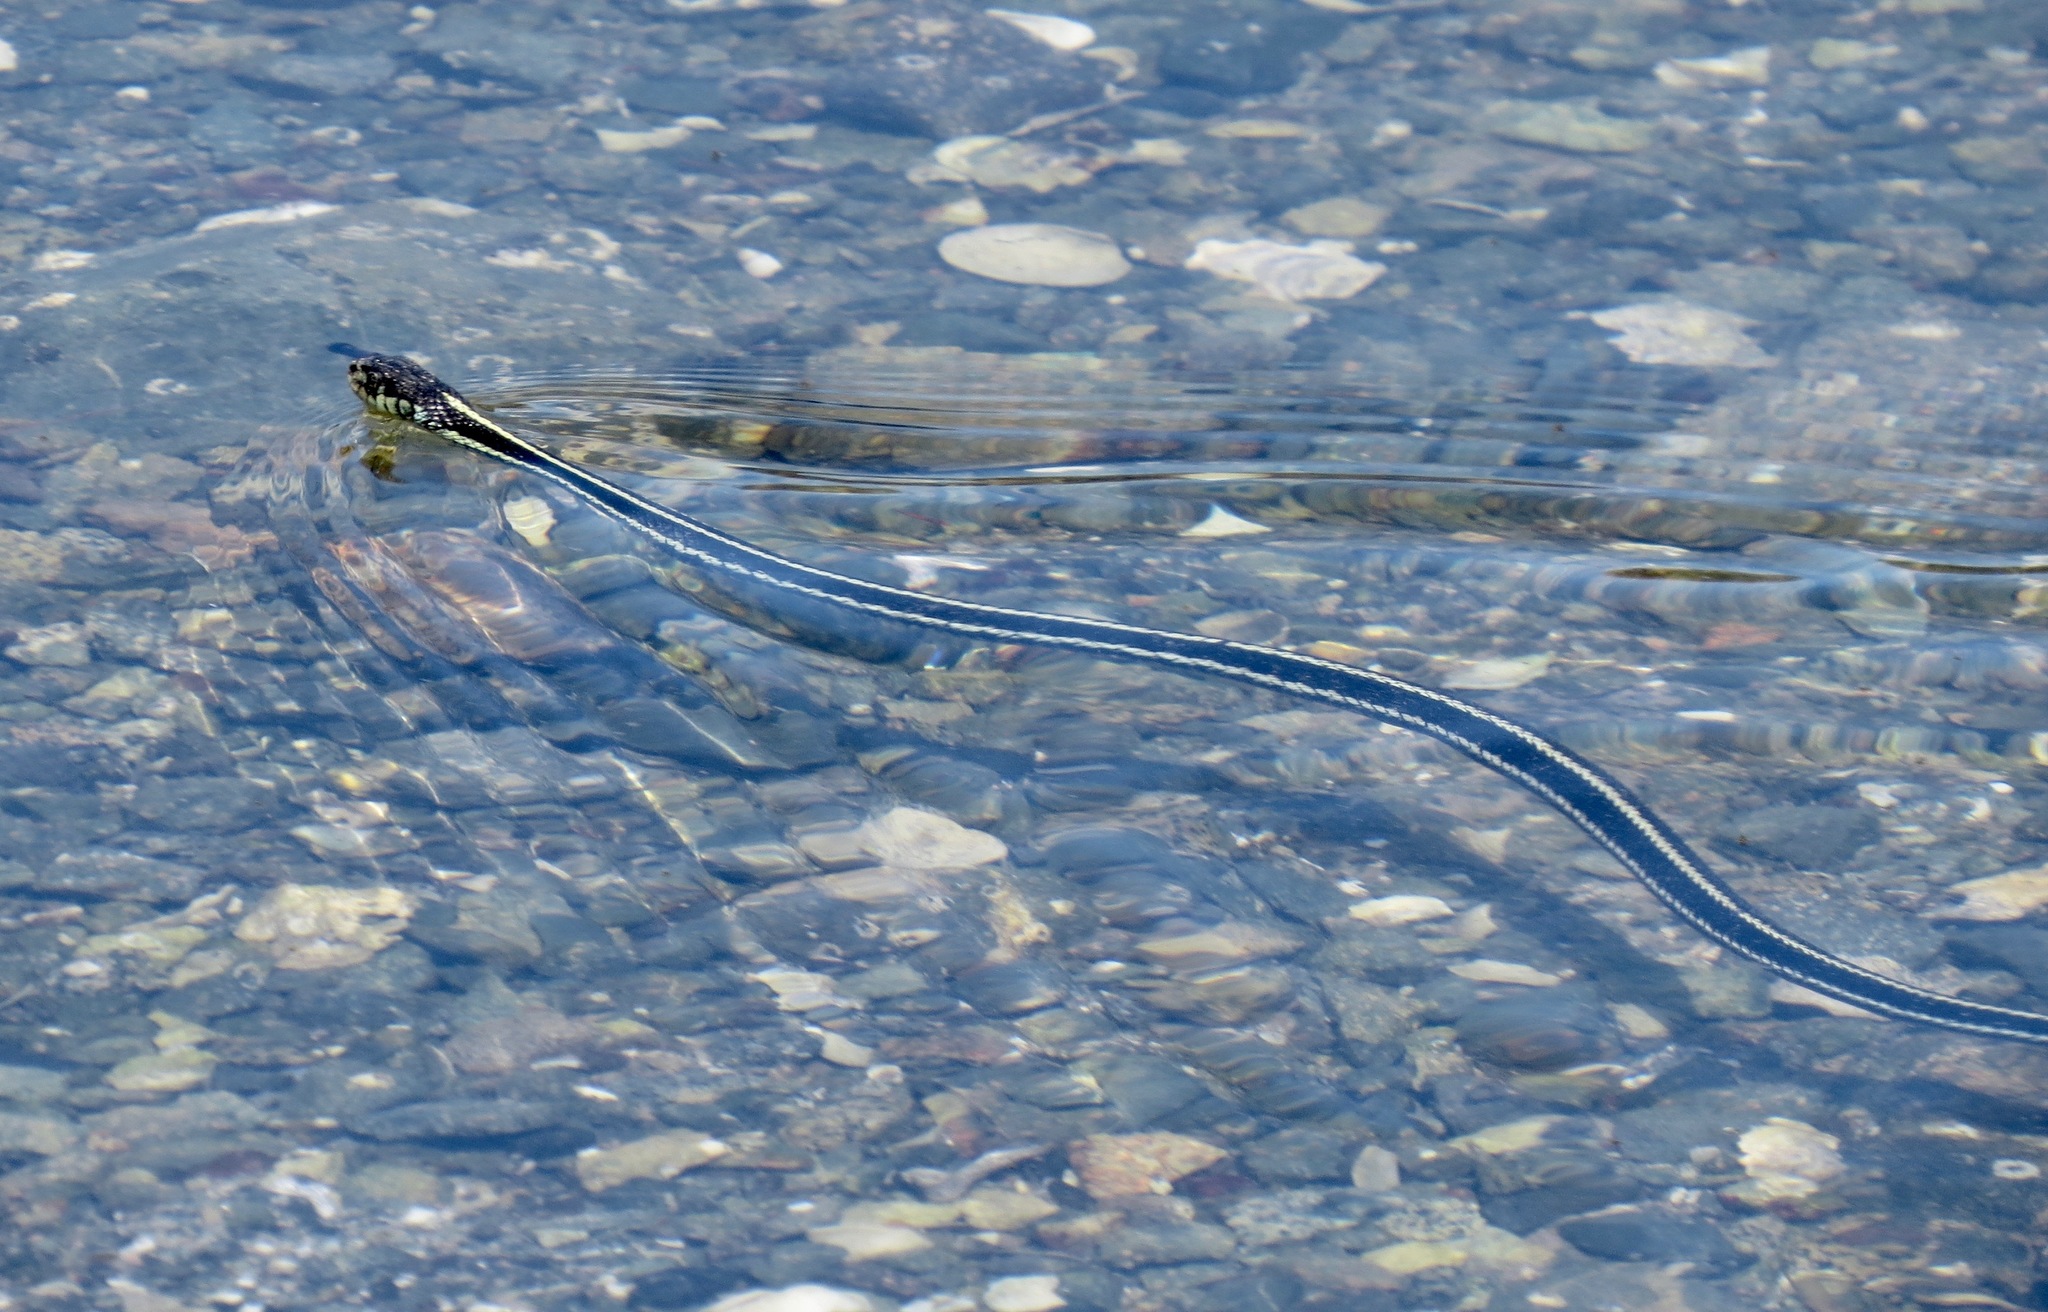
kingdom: Animalia
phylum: Chordata
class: Squamata
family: Colubridae
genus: Thamnophis
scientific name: Thamnophis sirtalis
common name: Common garter snake
